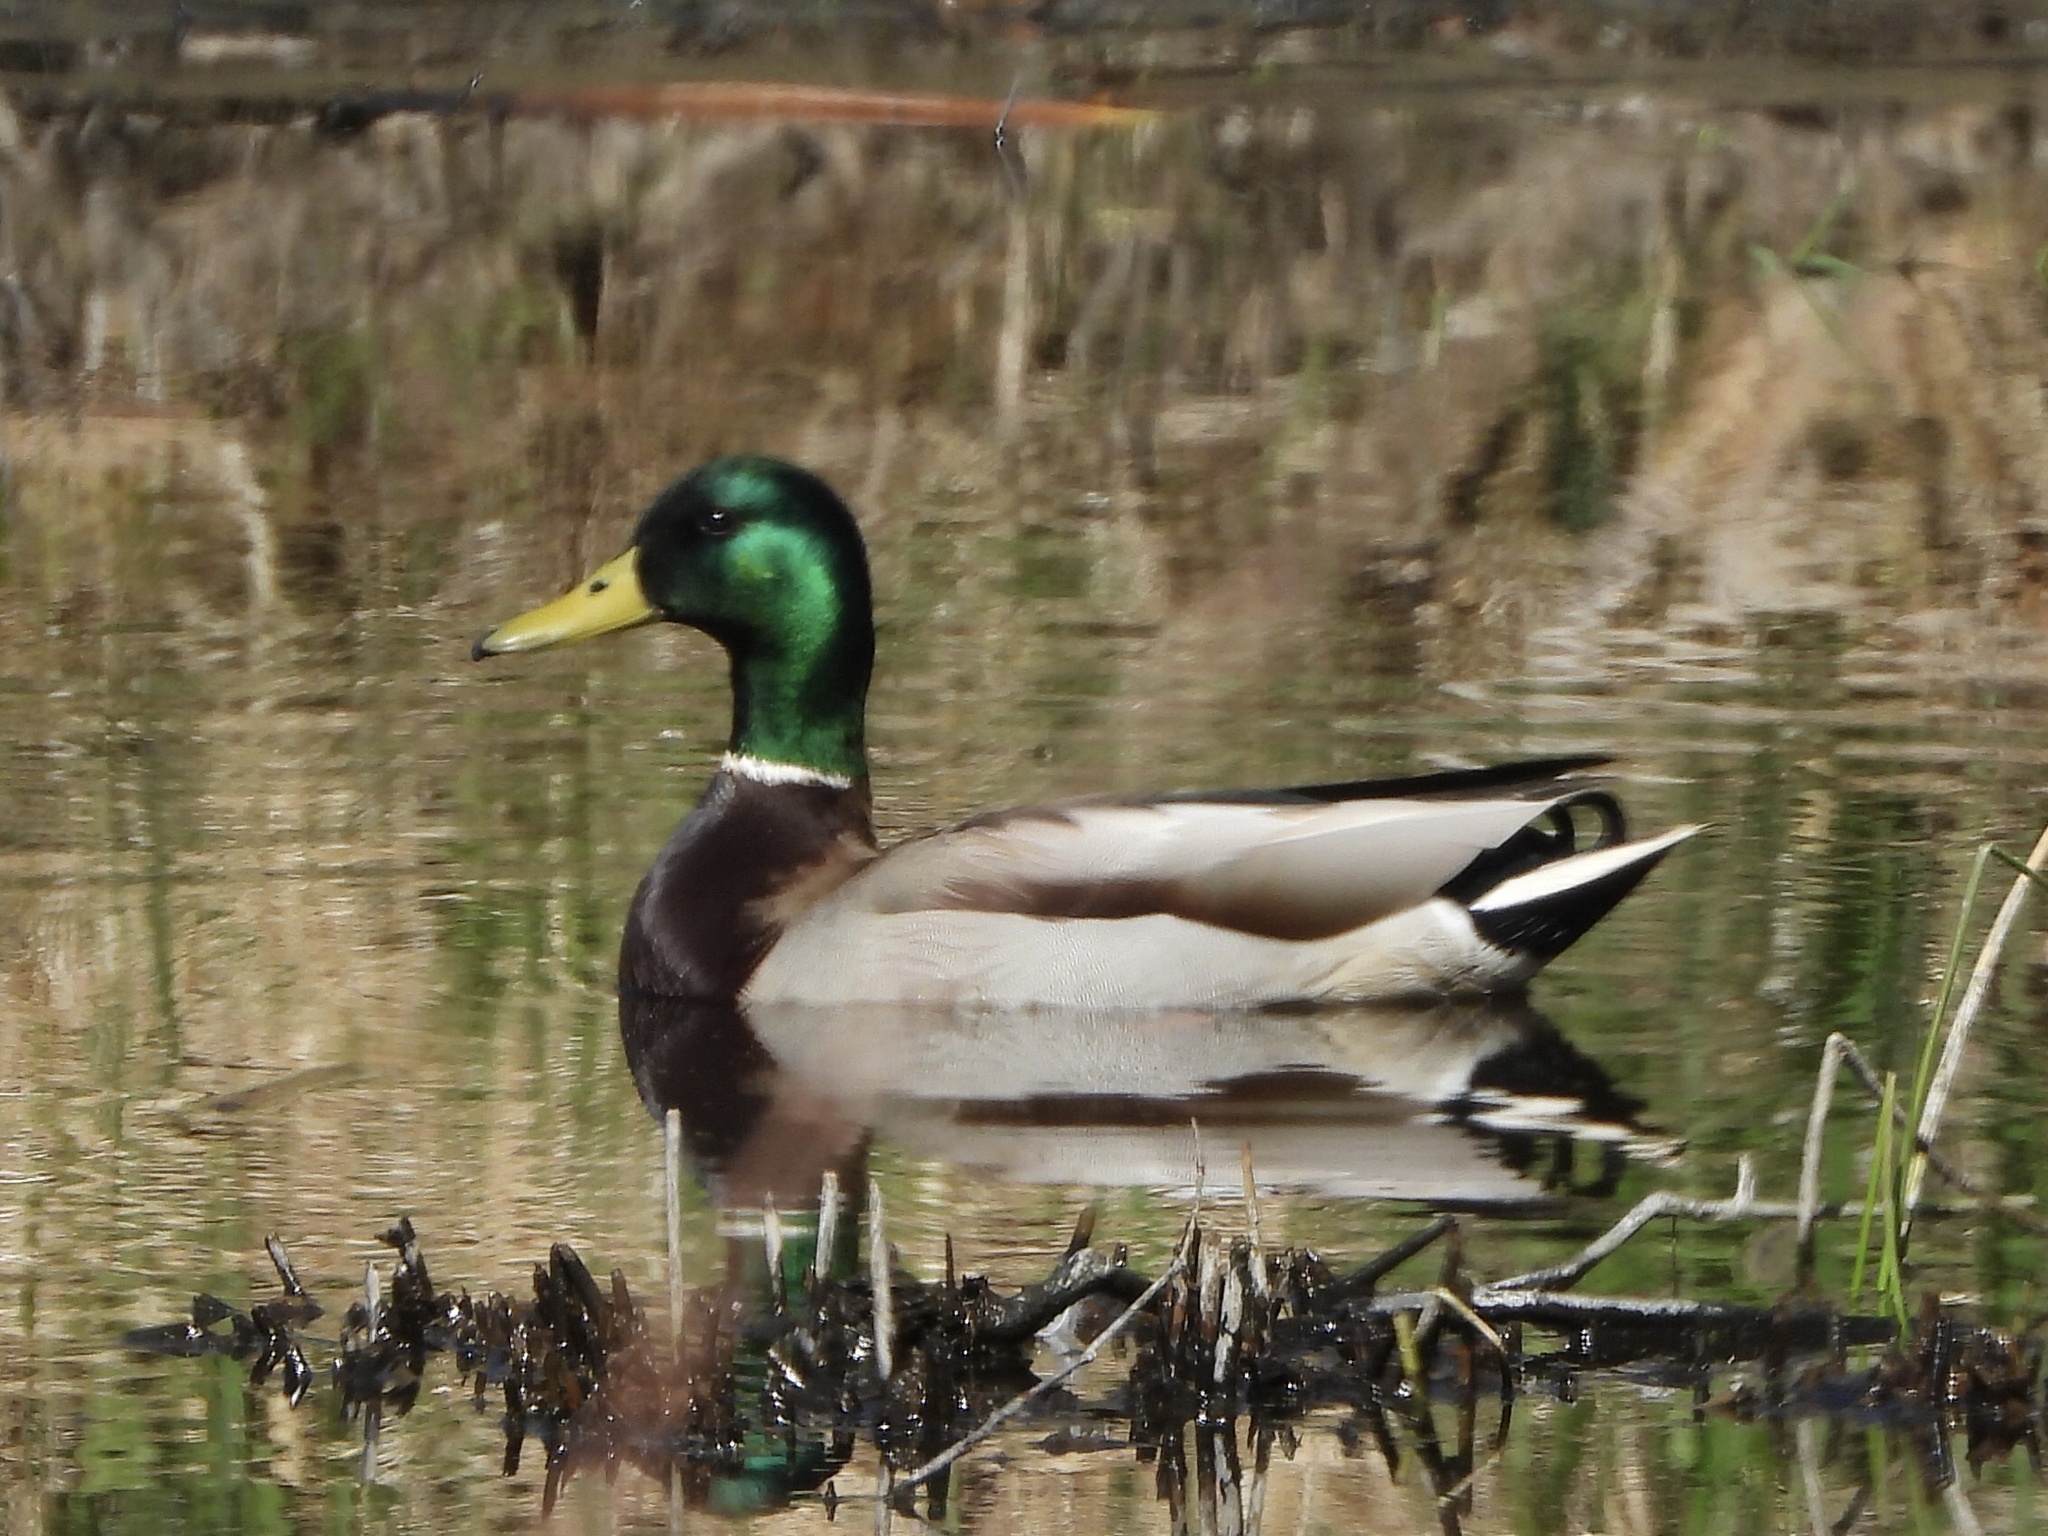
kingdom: Animalia
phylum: Chordata
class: Aves
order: Anseriformes
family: Anatidae
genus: Anas
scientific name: Anas platyrhynchos
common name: Mallard
